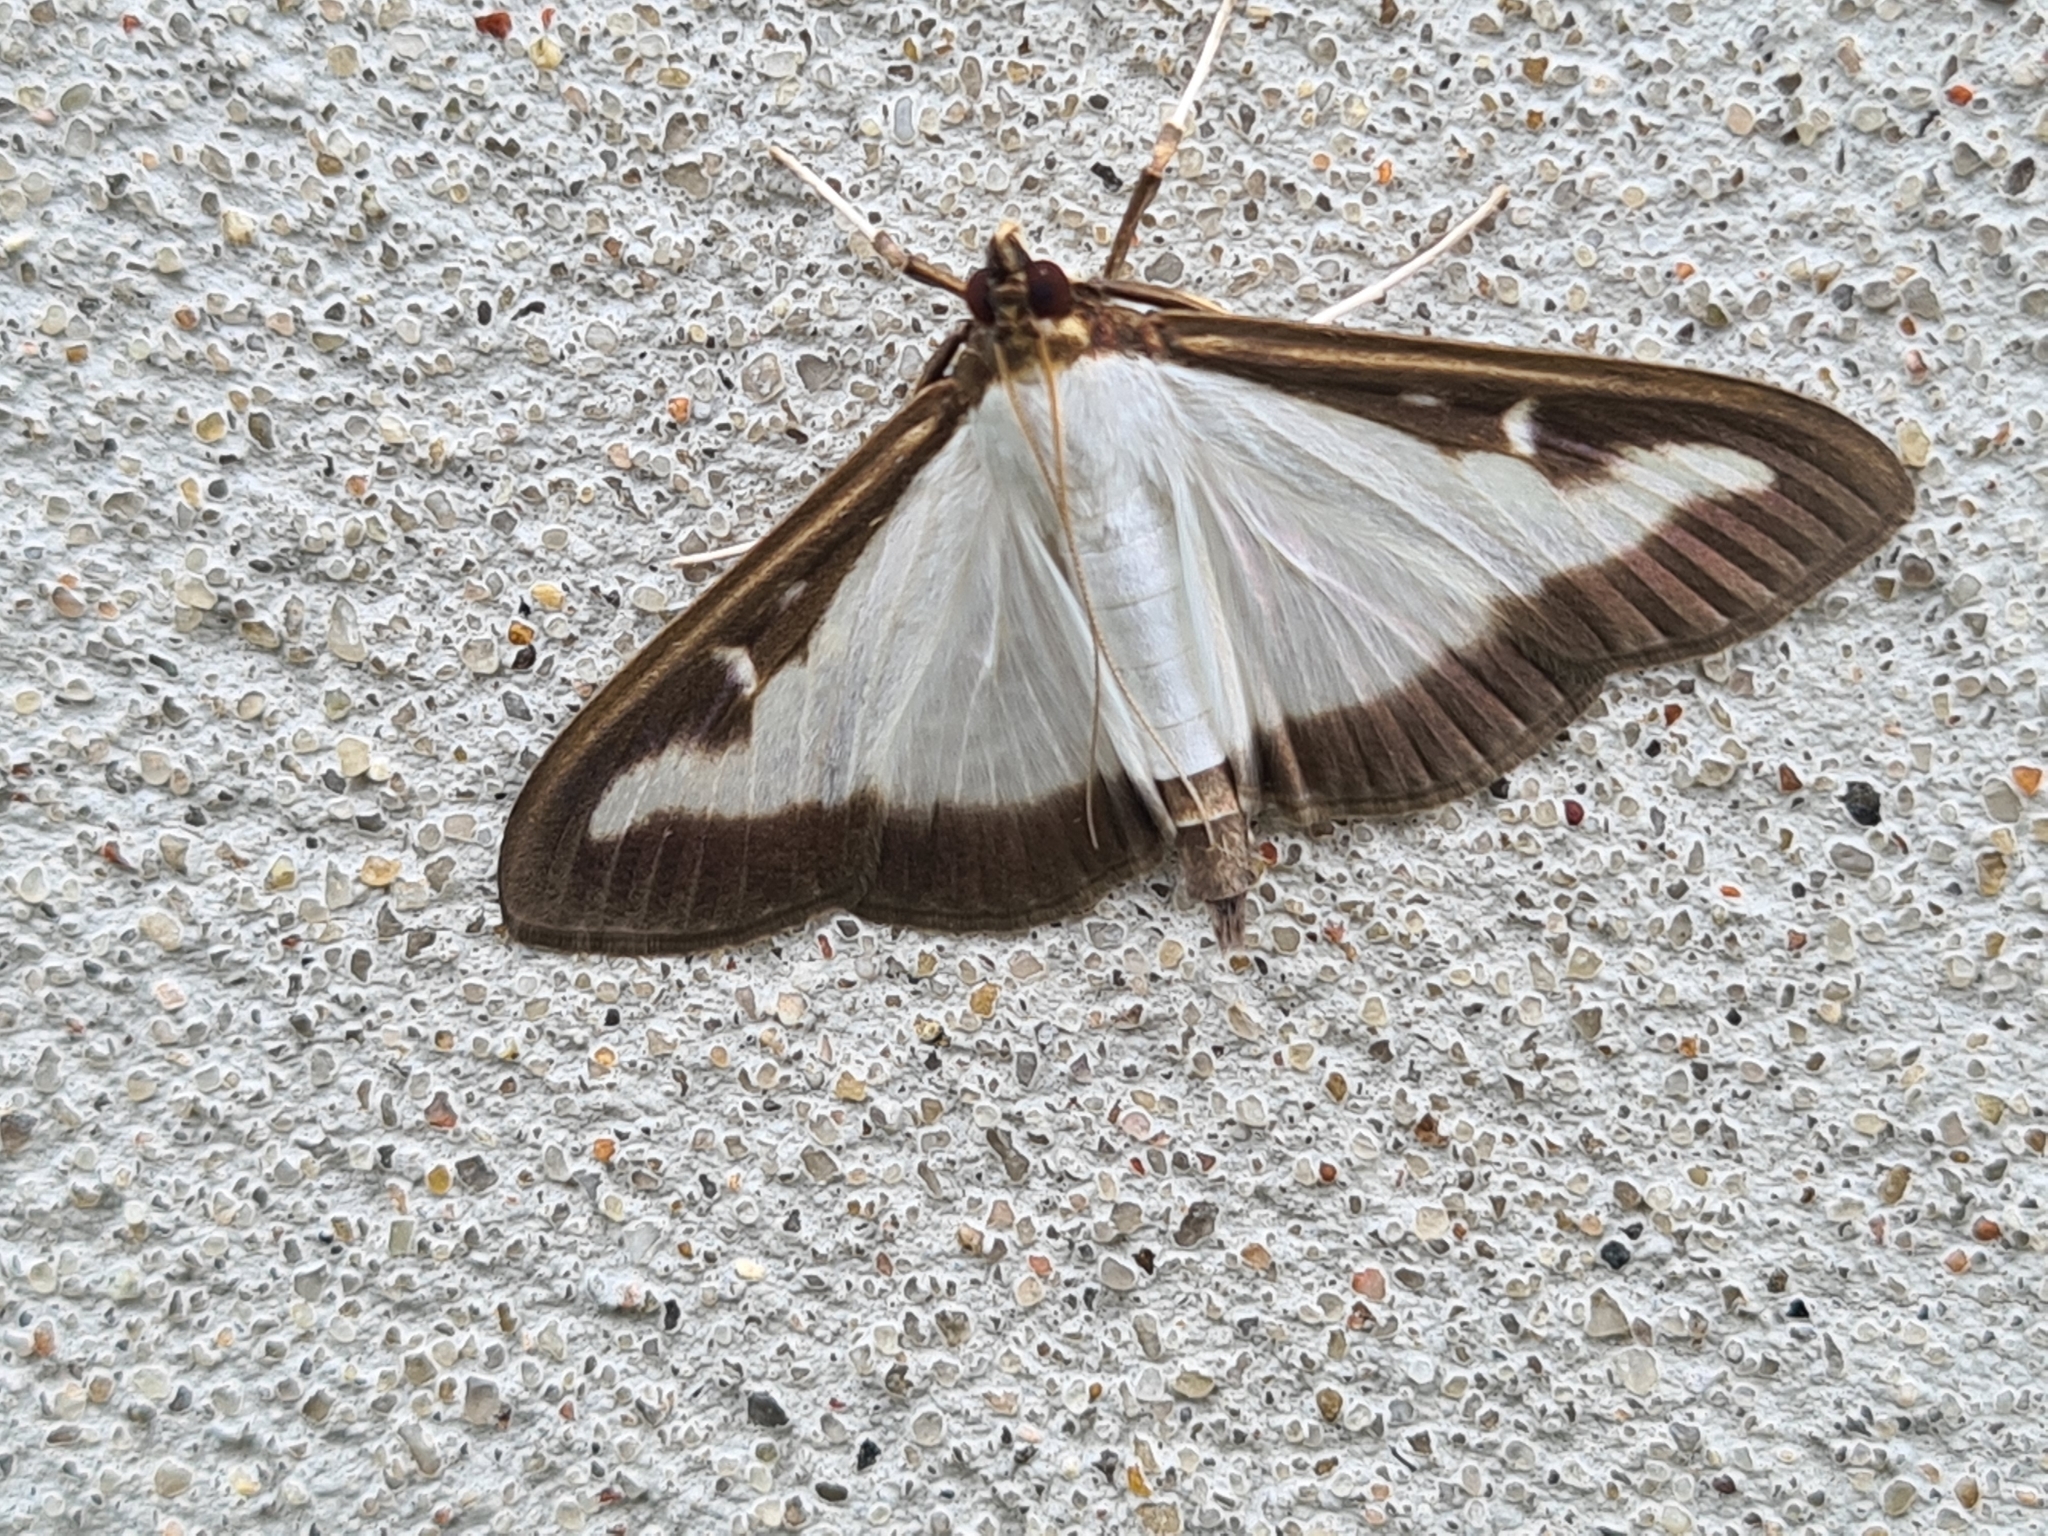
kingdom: Animalia
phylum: Arthropoda
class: Insecta
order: Lepidoptera
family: Crambidae
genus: Cydalima
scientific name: Cydalima perspectalis
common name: Box tree moth
